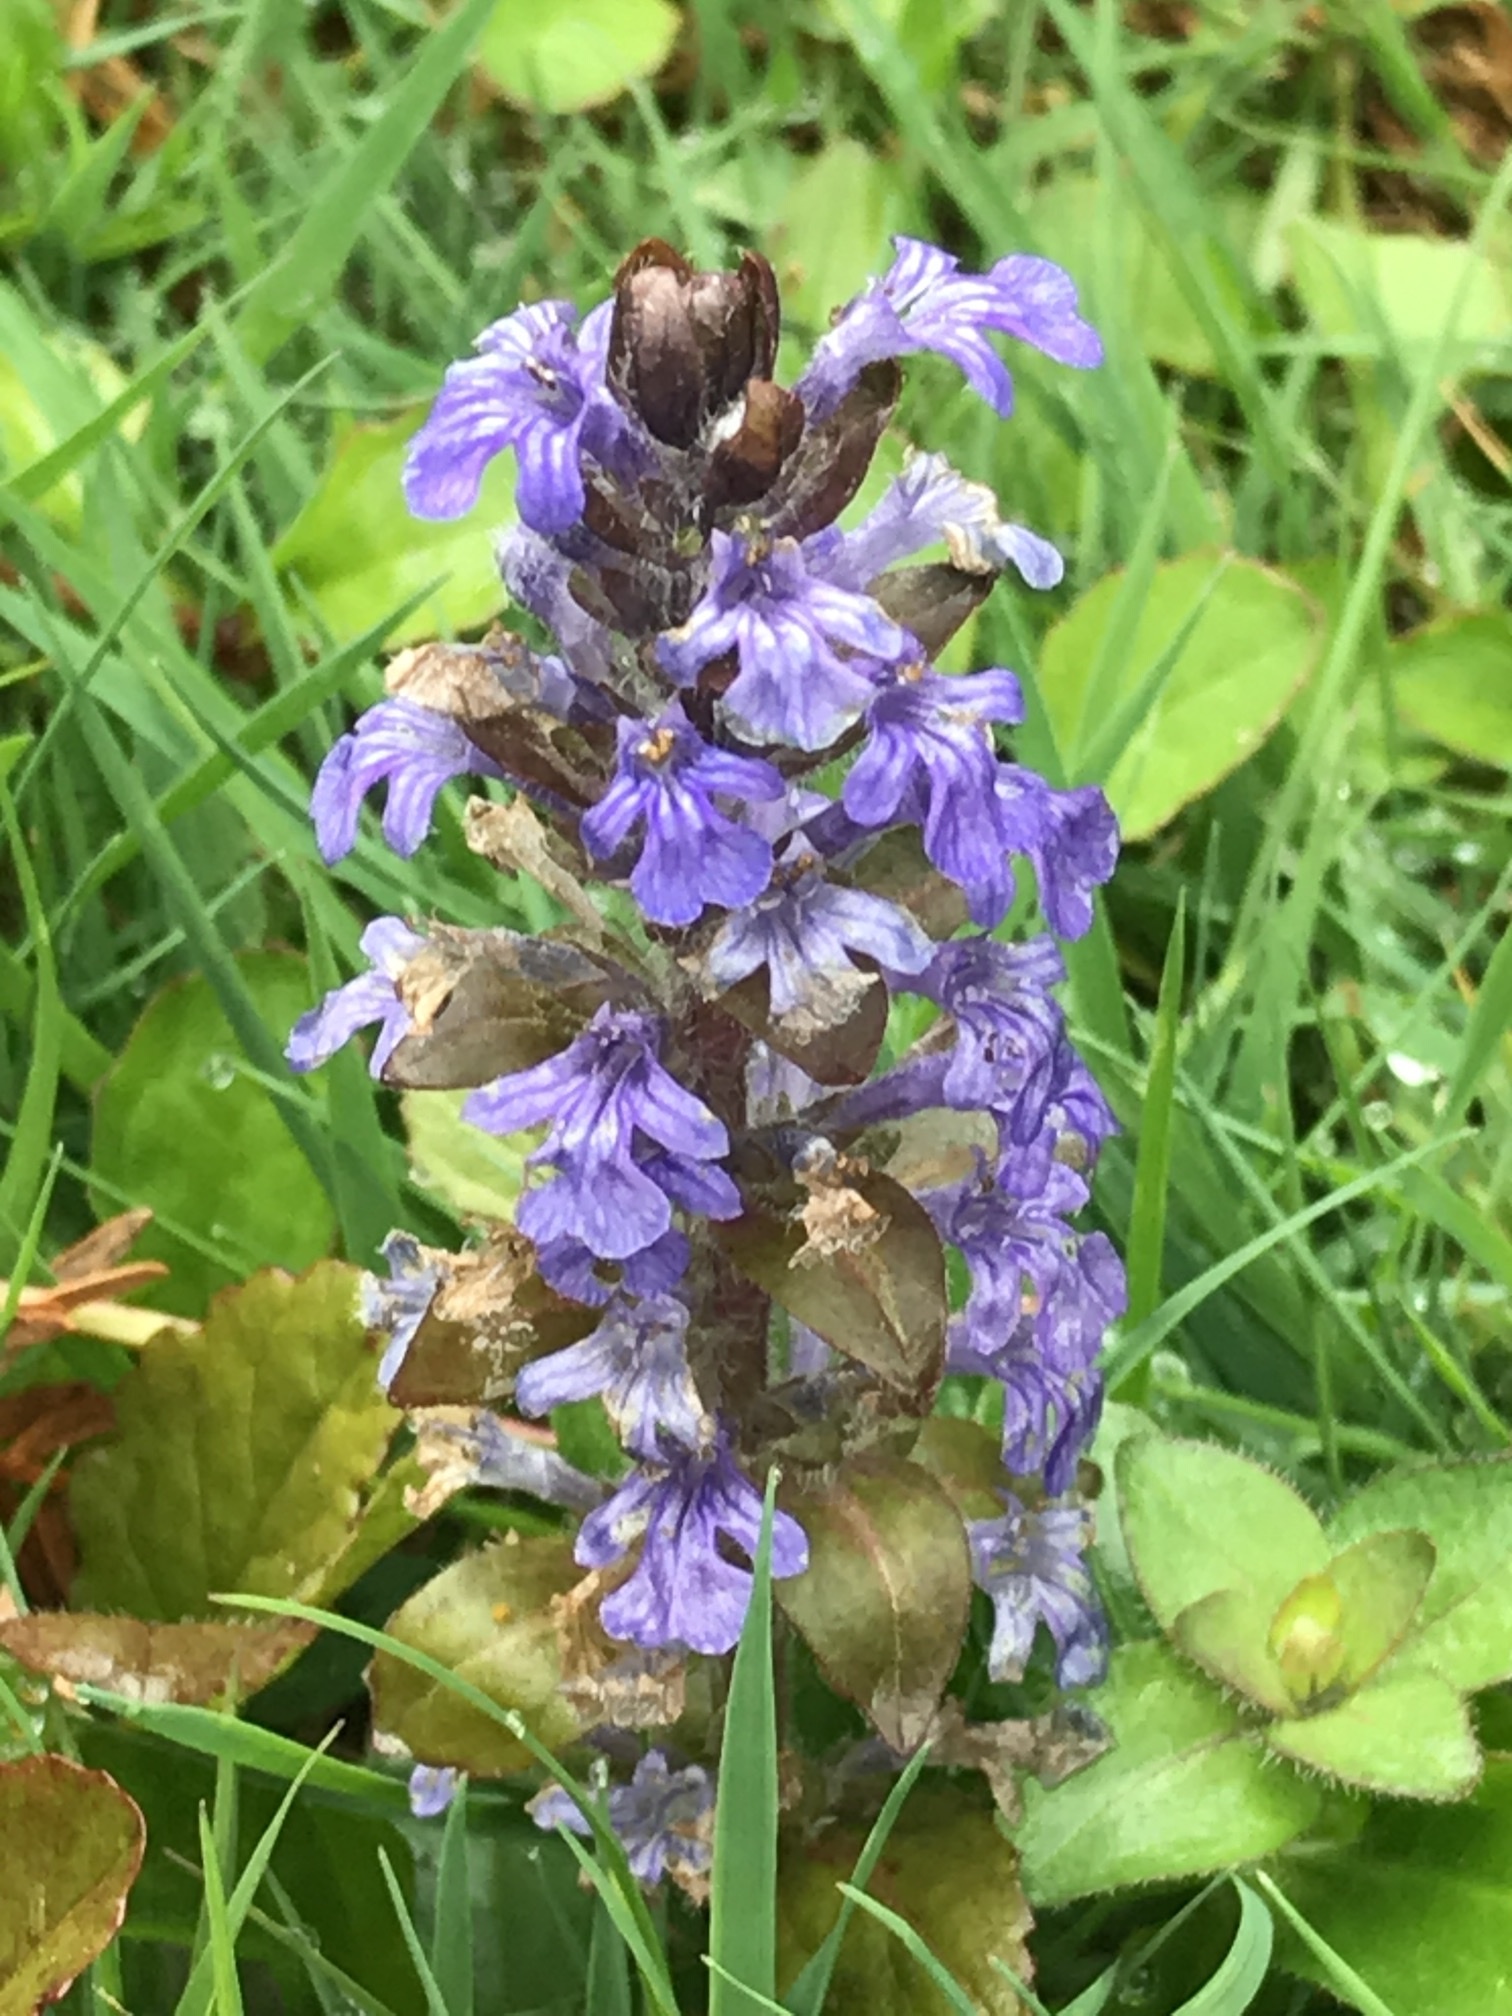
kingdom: Plantae
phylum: Tracheophyta
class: Magnoliopsida
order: Lamiales
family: Lamiaceae
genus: Ajuga
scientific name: Ajuga reptans
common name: Bugle
